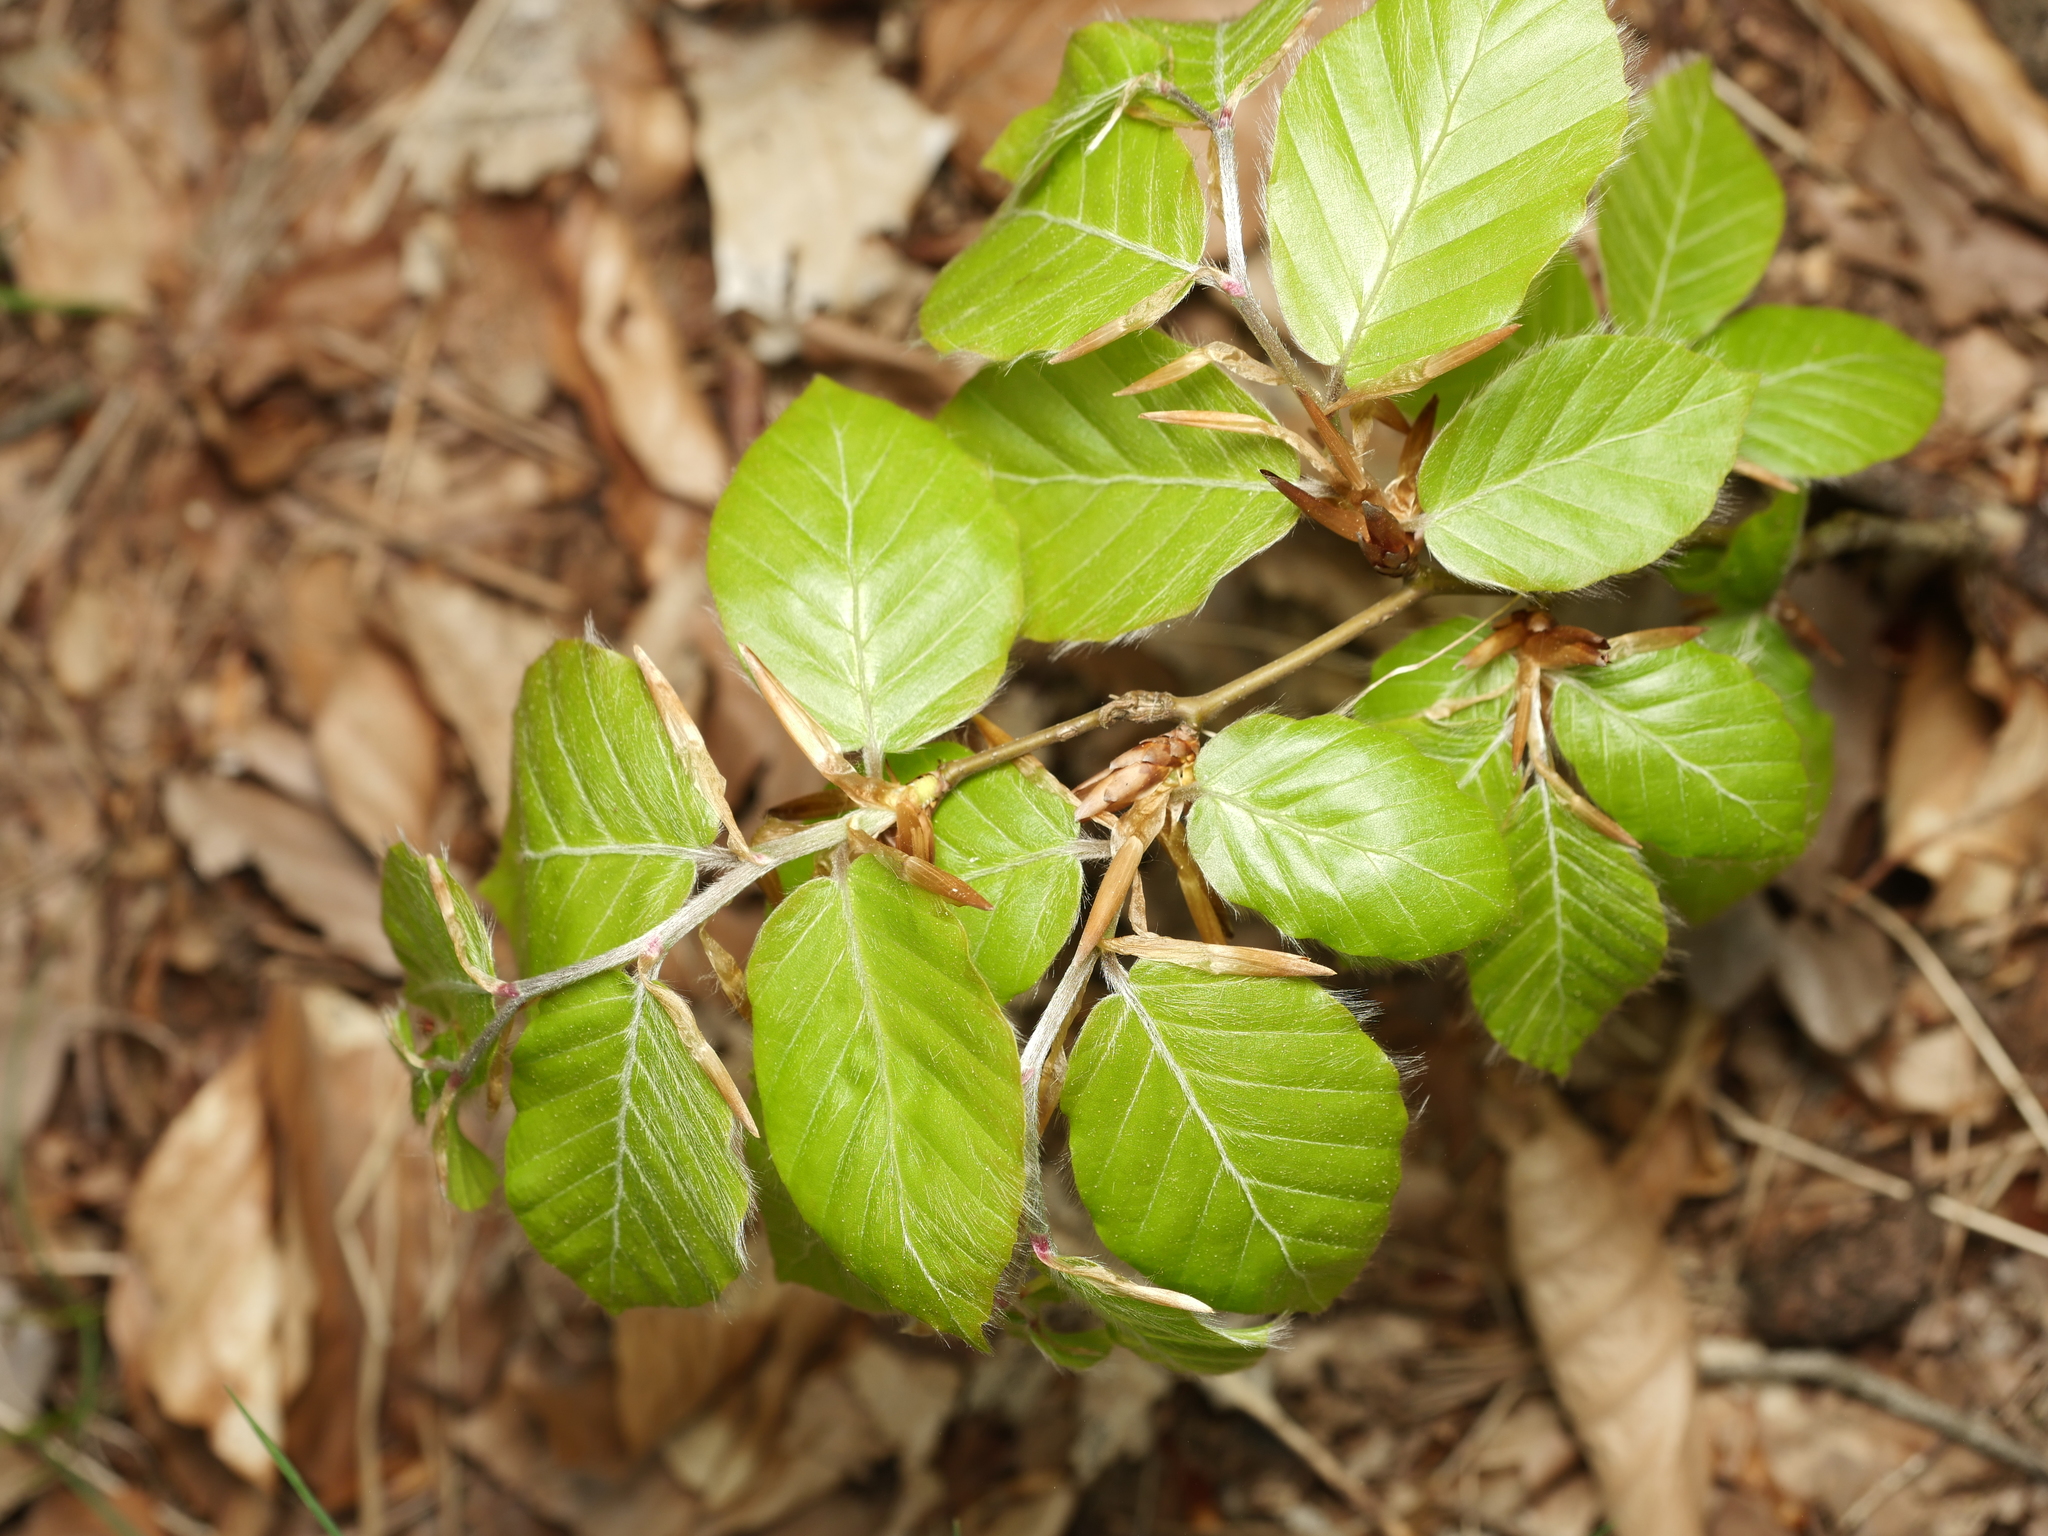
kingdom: Plantae
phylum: Tracheophyta
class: Magnoliopsida
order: Fagales
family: Fagaceae
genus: Fagus
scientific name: Fagus sylvatica
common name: Beech
